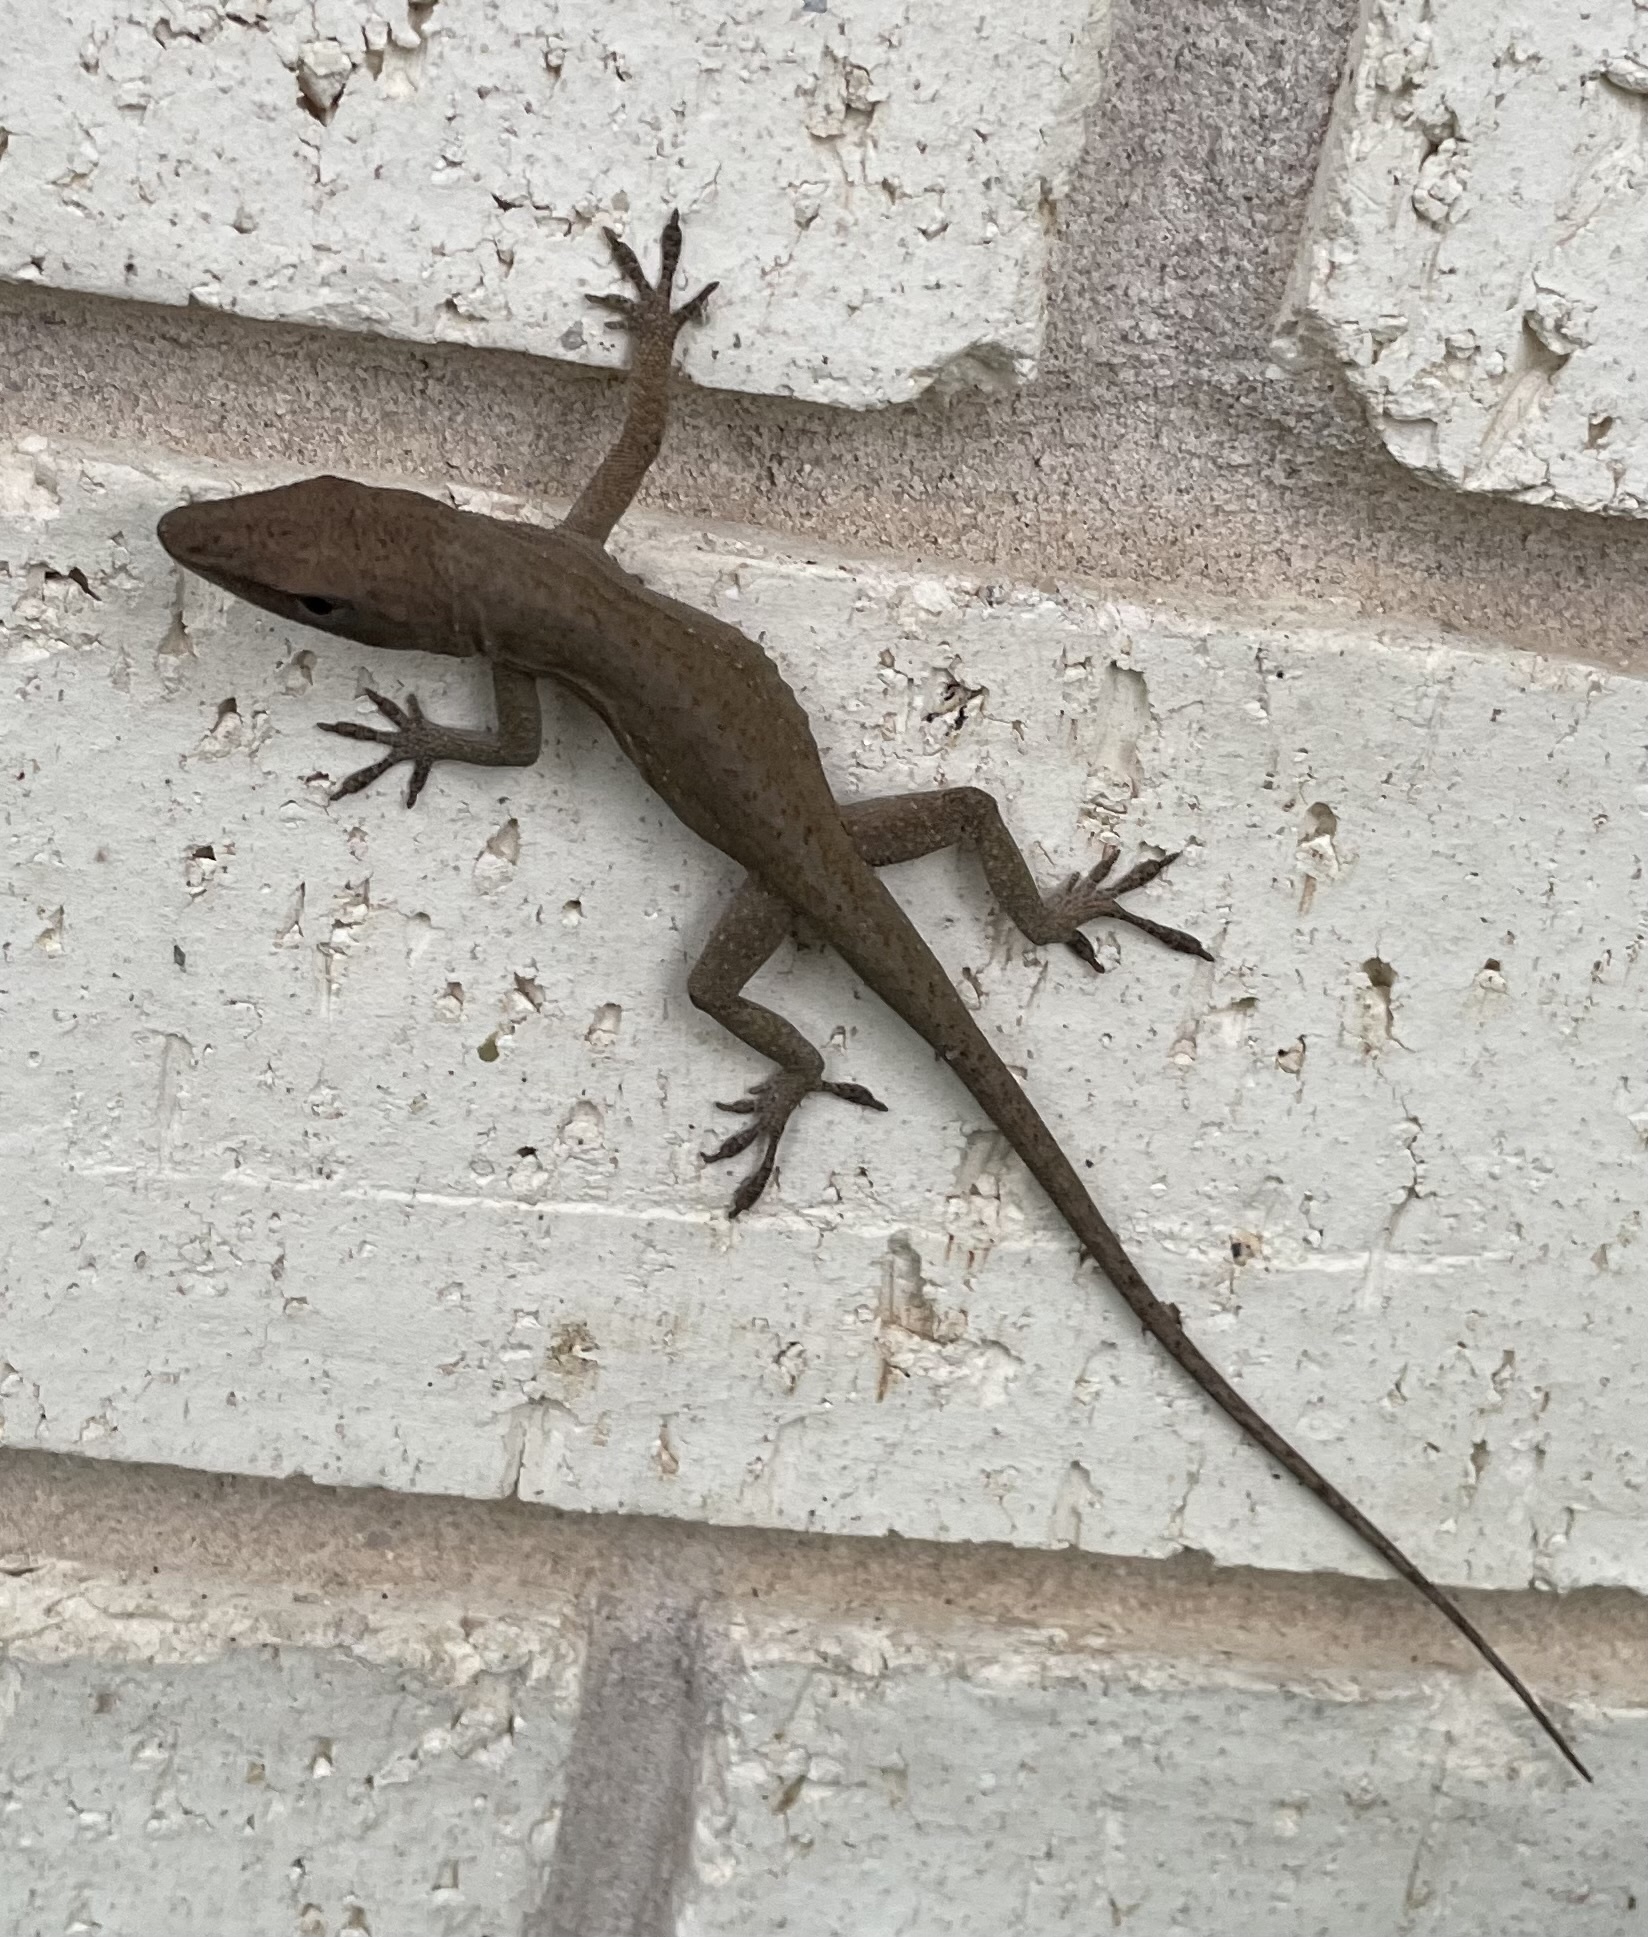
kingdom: Animalia
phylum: Chordata
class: Squamata
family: Dactyloidae
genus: Anolis
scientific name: Anolis carolinensis
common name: Green anole
